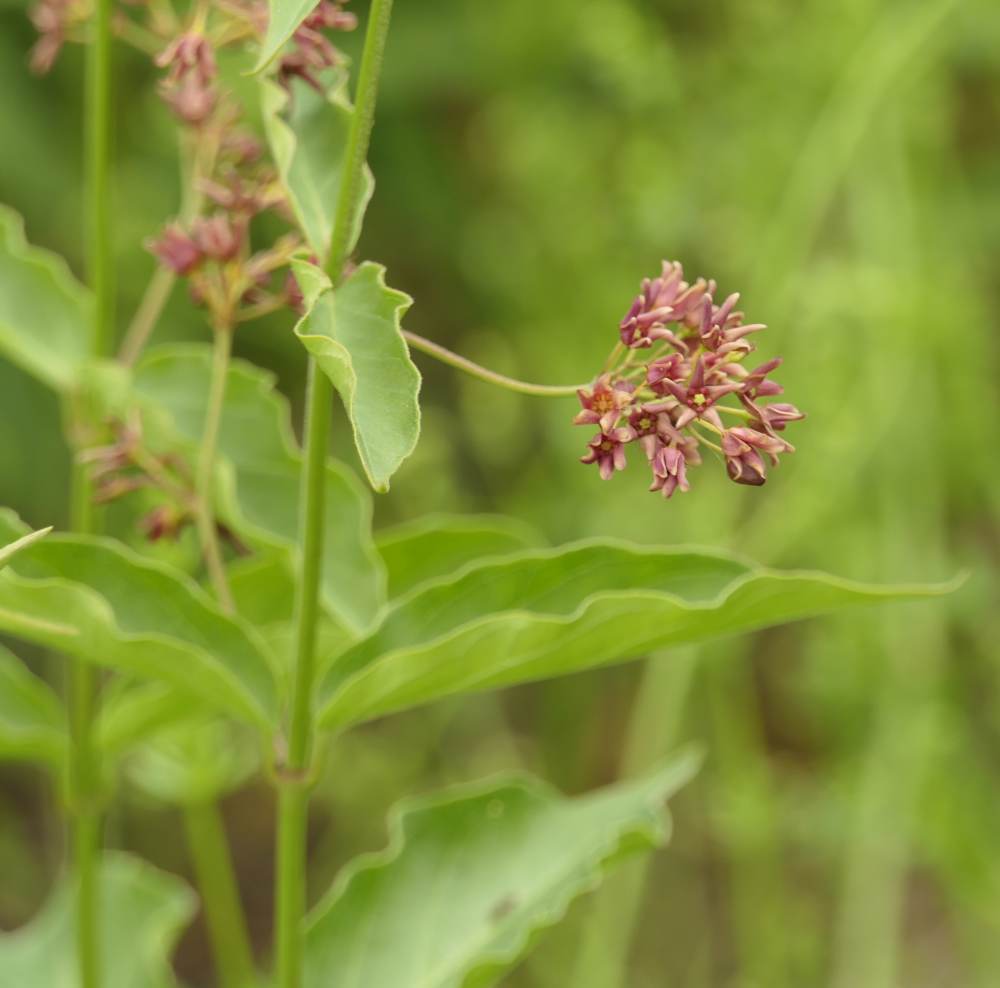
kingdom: Plantae
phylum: Tracheophyta
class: Magnoliopsida
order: Gentianales
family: Apocynaceae
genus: Vincetoxicum
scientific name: Vincetoxicum rossicum
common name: Dog-strangling vine
